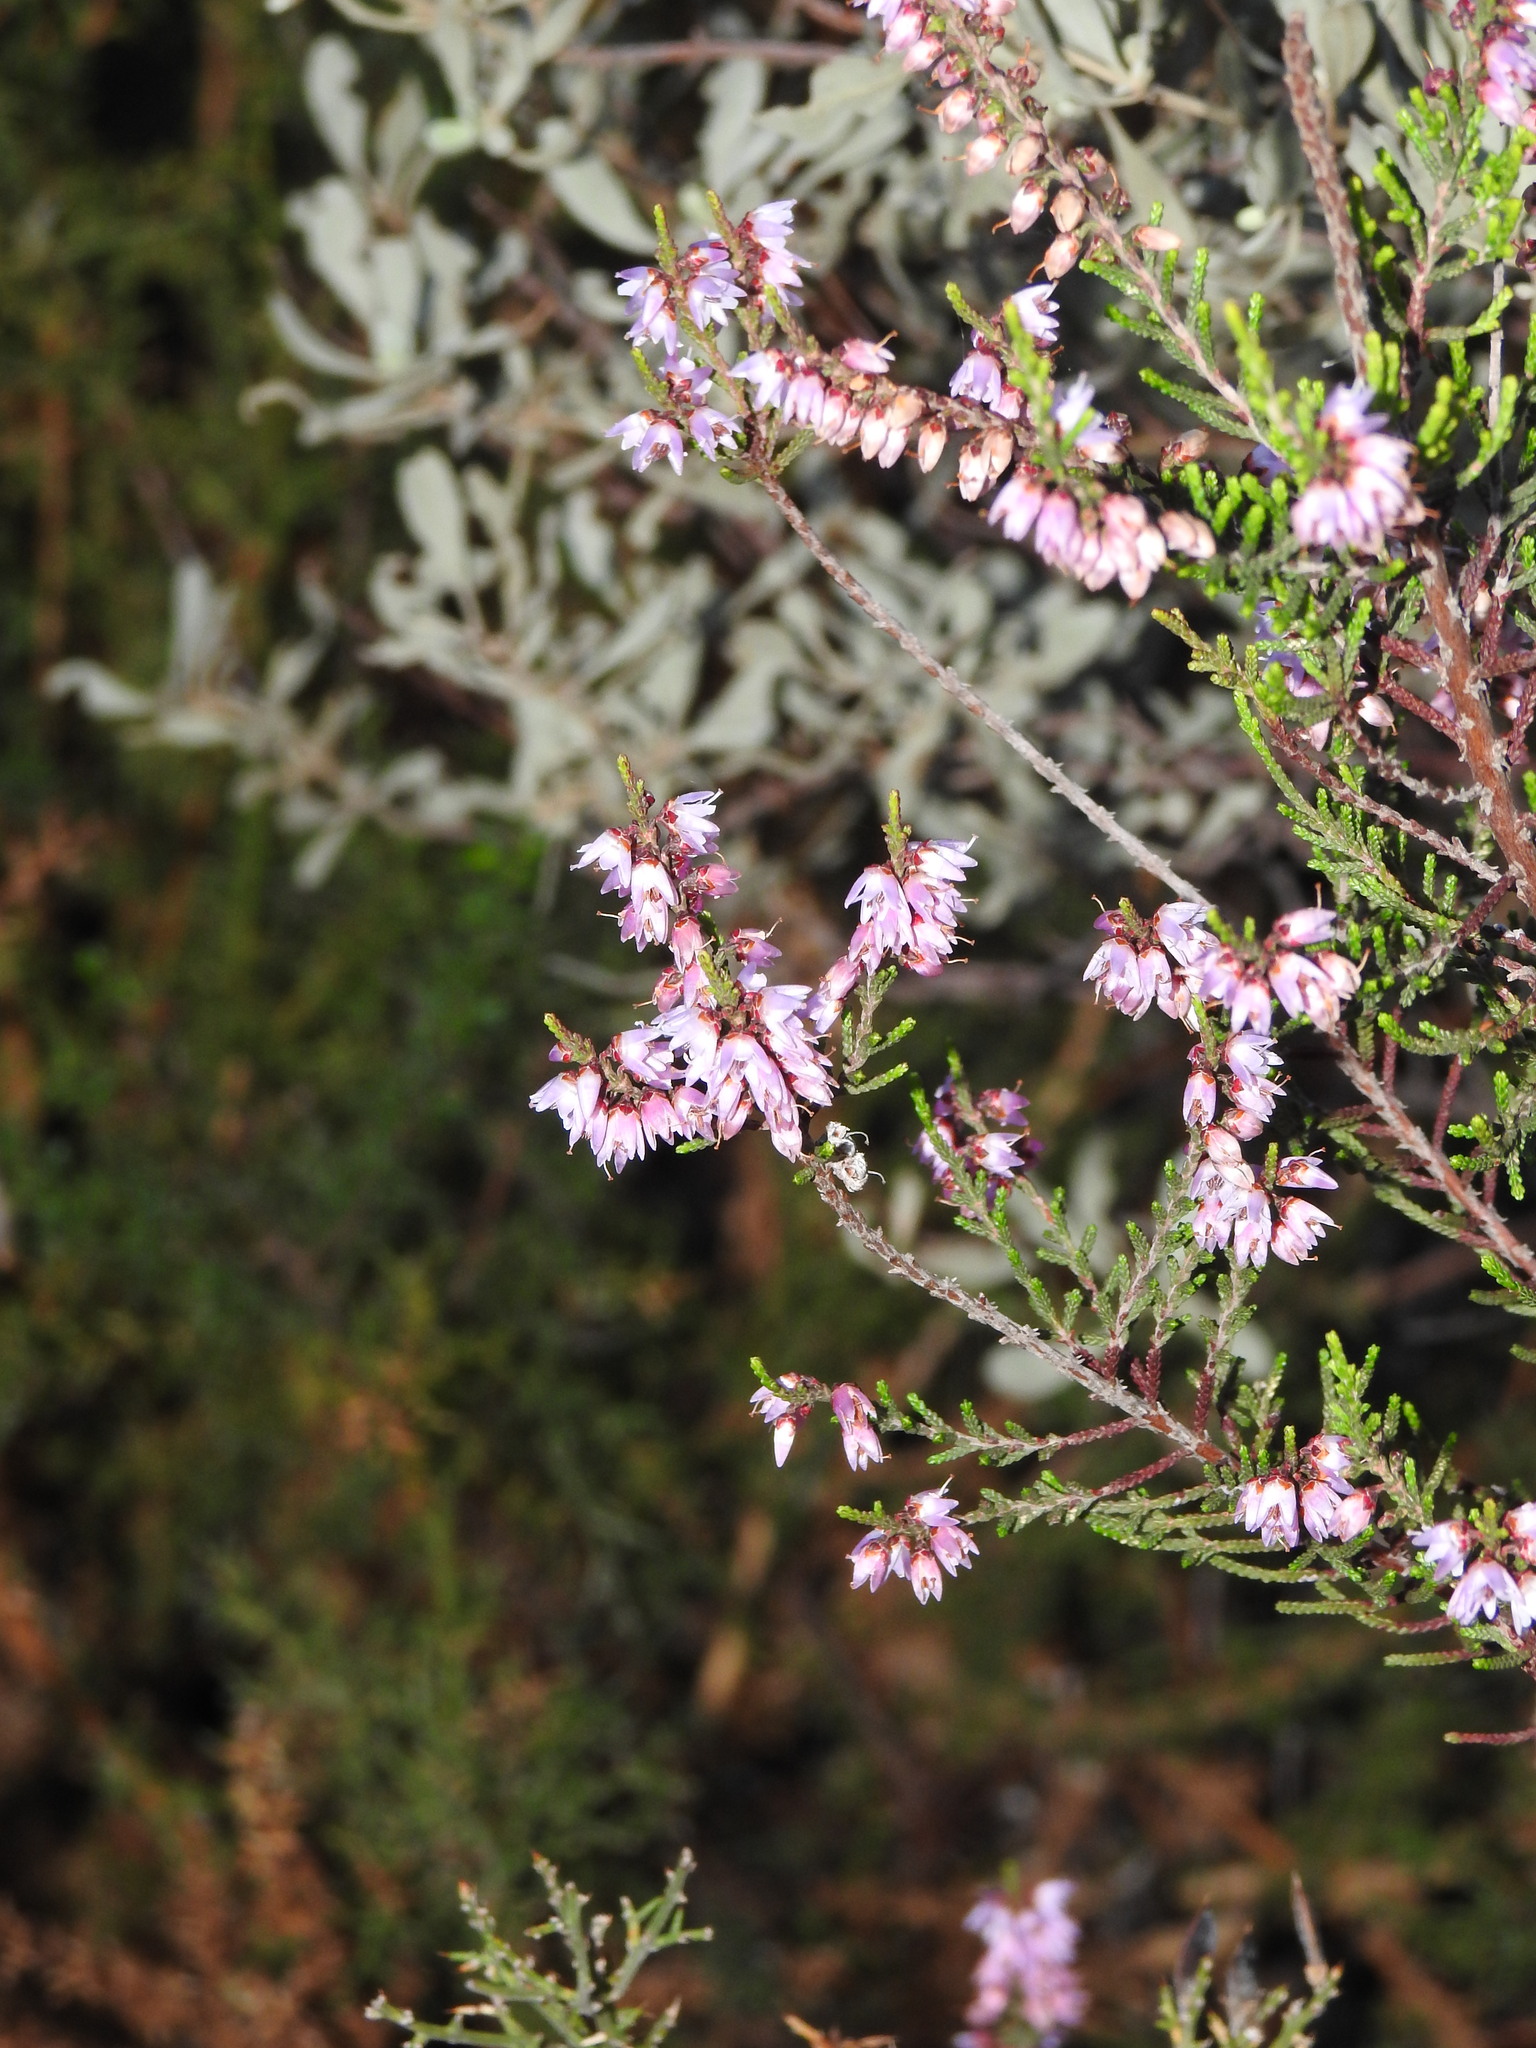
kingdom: Plantae
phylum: Tracheophyta
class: Magnoliopsida
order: Ericales
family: Ericaceae
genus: Calluna
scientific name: Calluna vulgaris
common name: Heather
